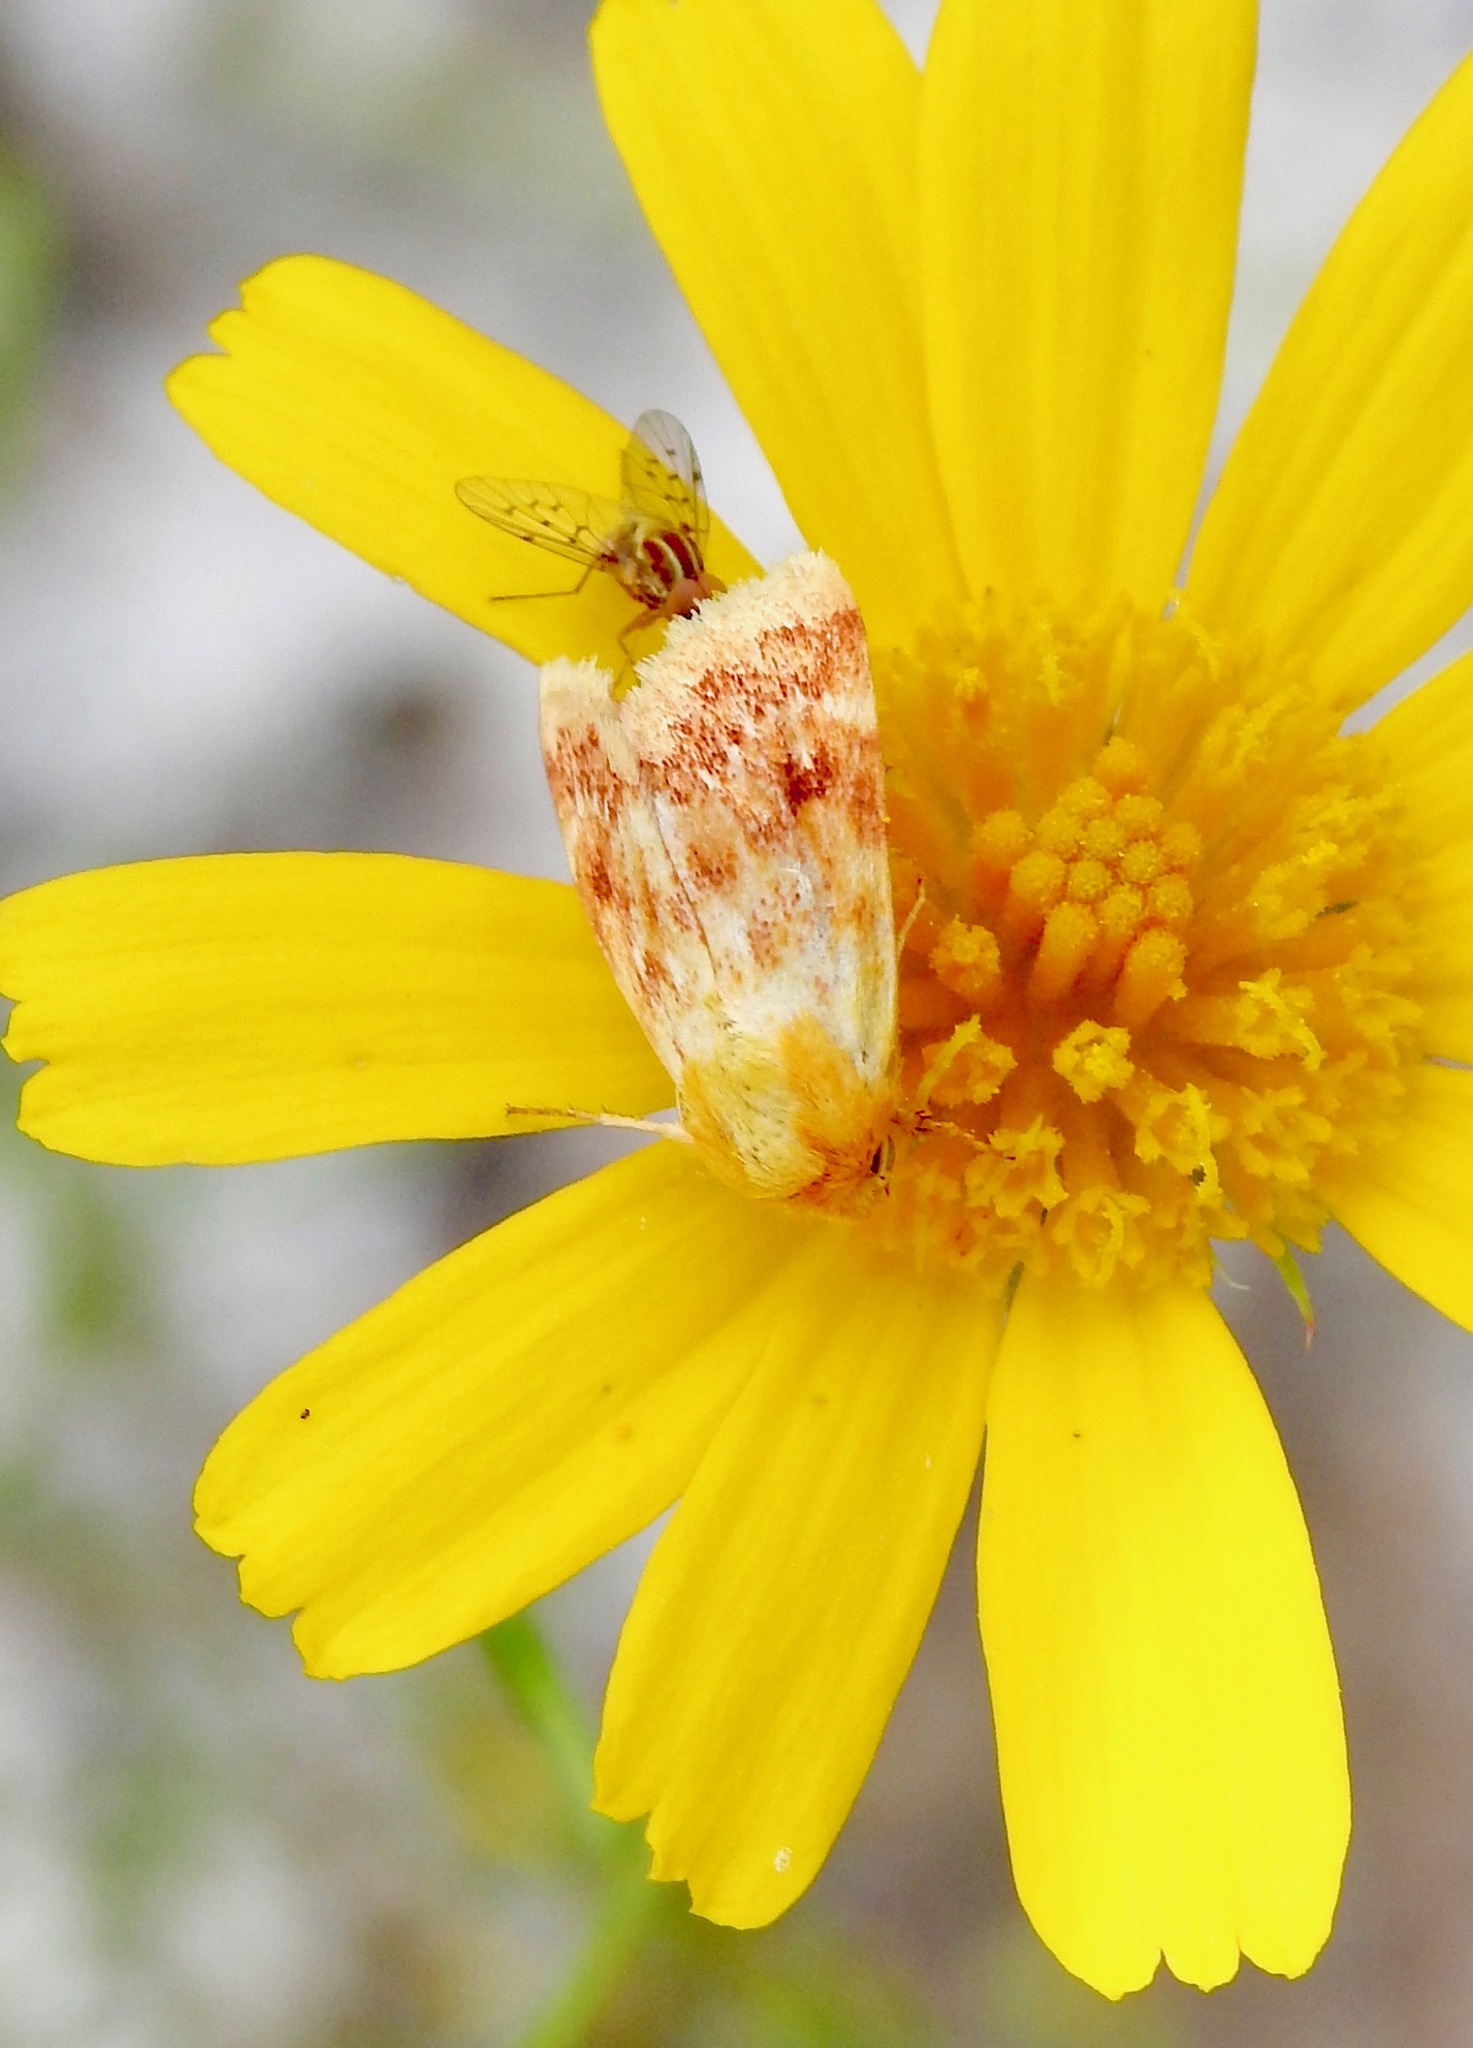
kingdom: Animalia
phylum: Arthropoda
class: Insecta
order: Lepidoptera
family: Noctuidae
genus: Schinia
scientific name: Schinia fulleri
